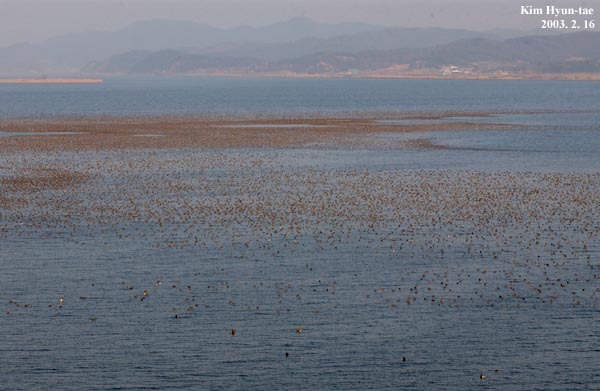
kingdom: Animalia
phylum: Chordata
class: Aves
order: Anseriformes
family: Anatidae
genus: Sibirionetta
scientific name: Sibirionetta formosa
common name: Baikal teal
